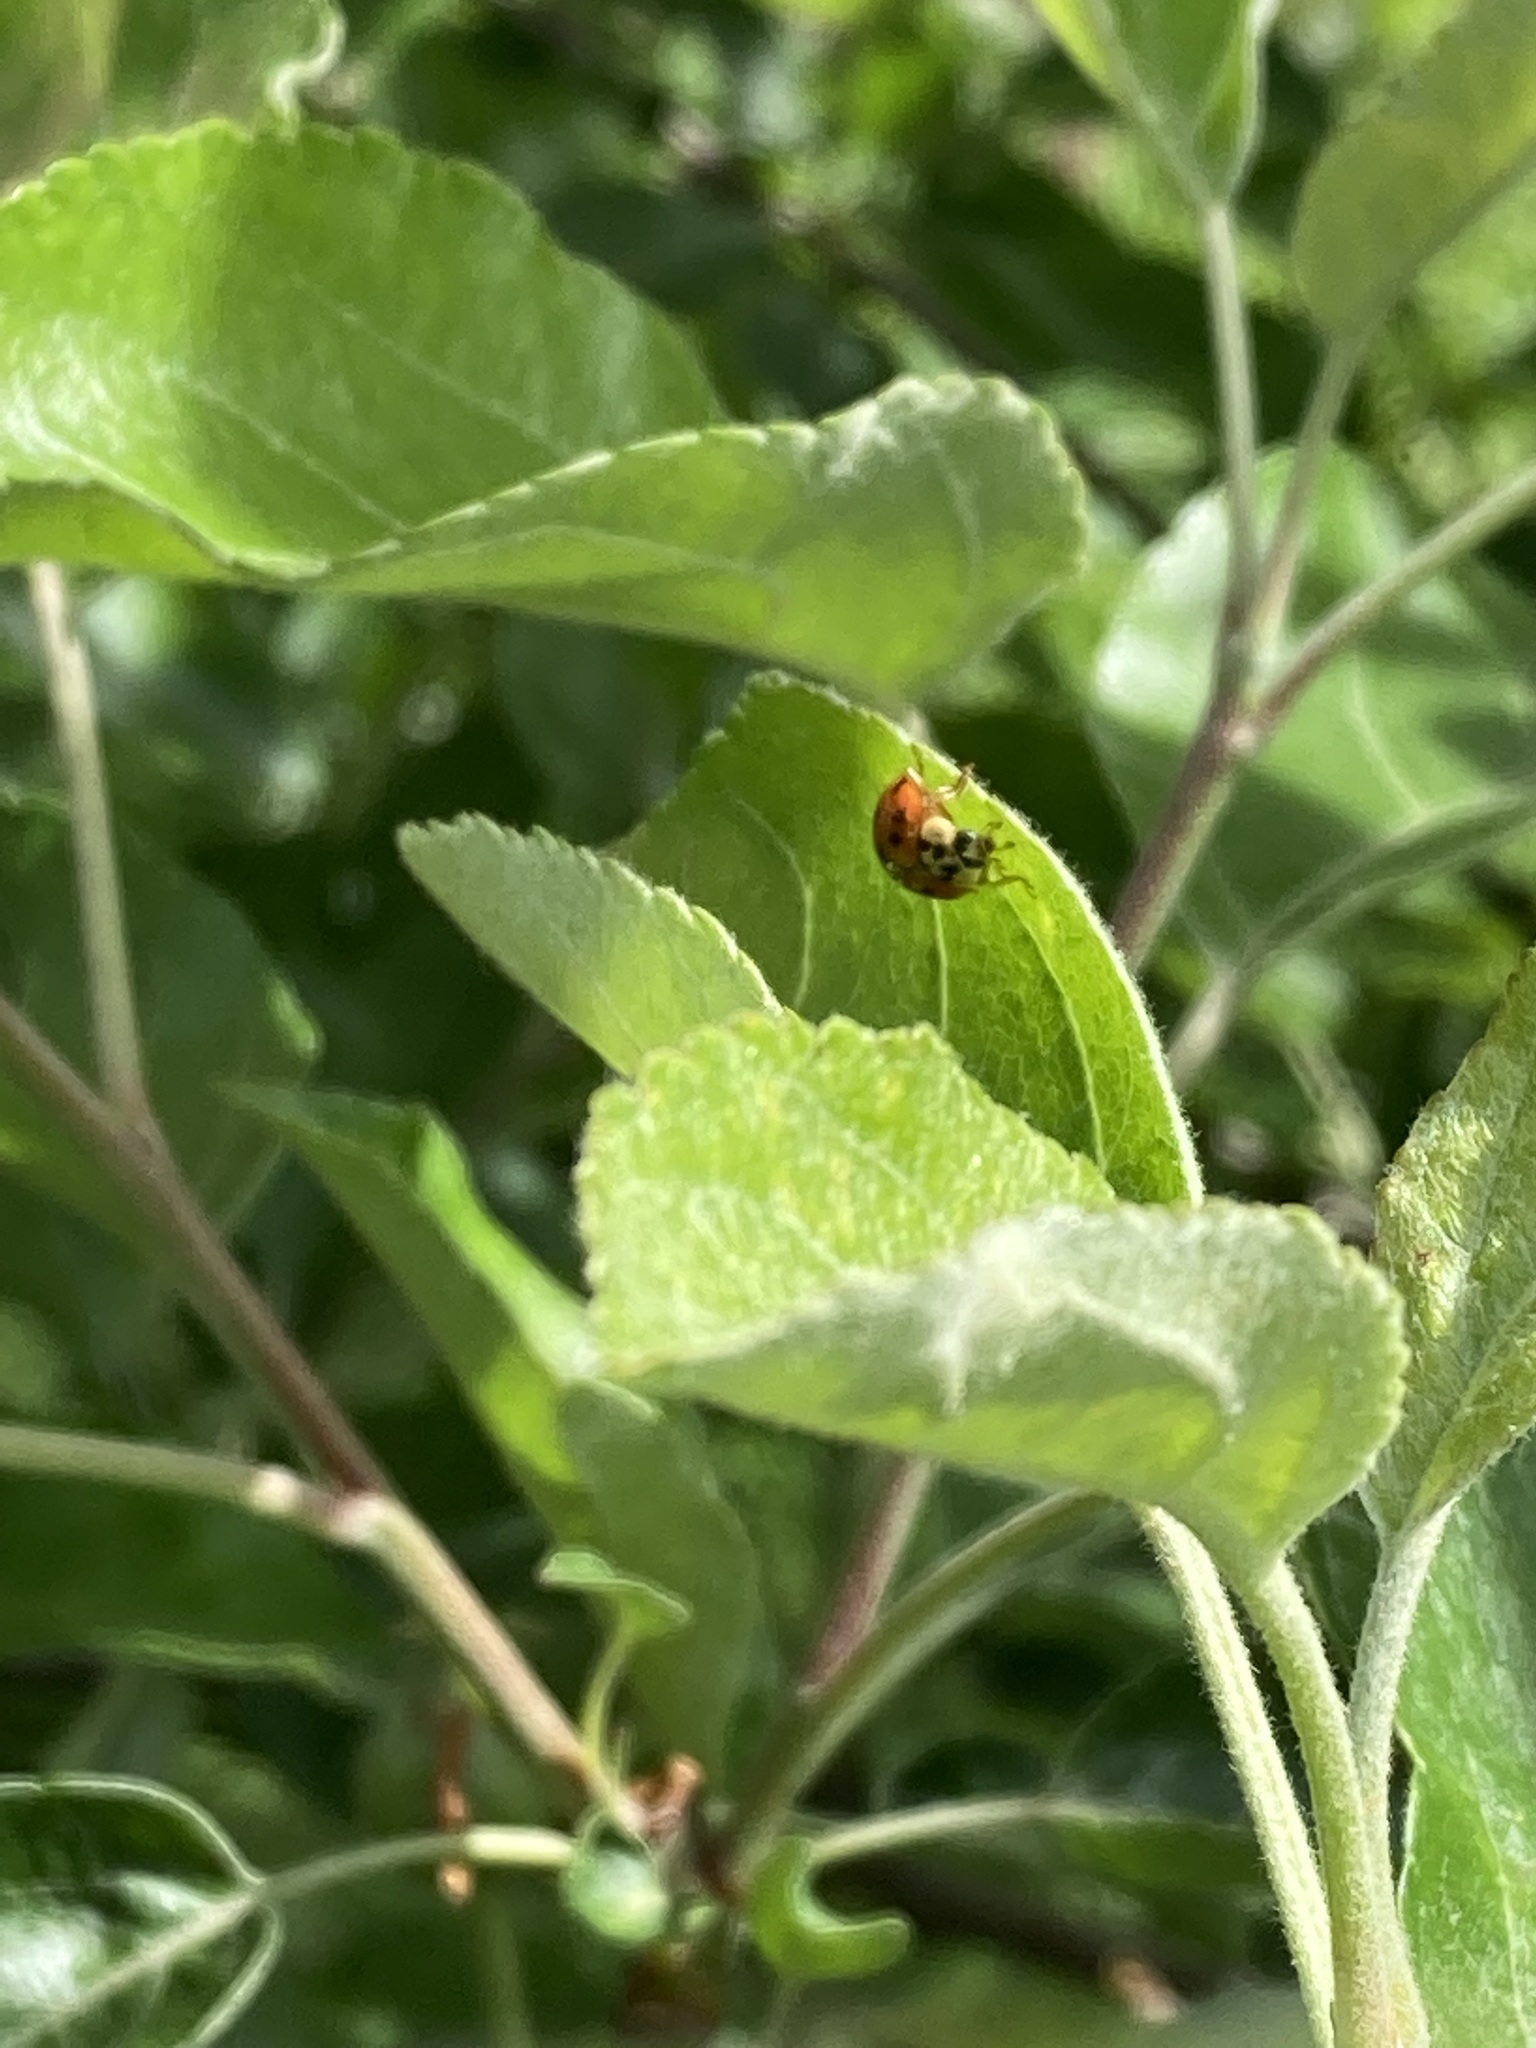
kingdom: Animalia
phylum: Arthropoda
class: Insecta
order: Coleoptera
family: Coccinellidae
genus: Harmonia
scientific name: Harmonia axyridis
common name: Harlequin ladybird
